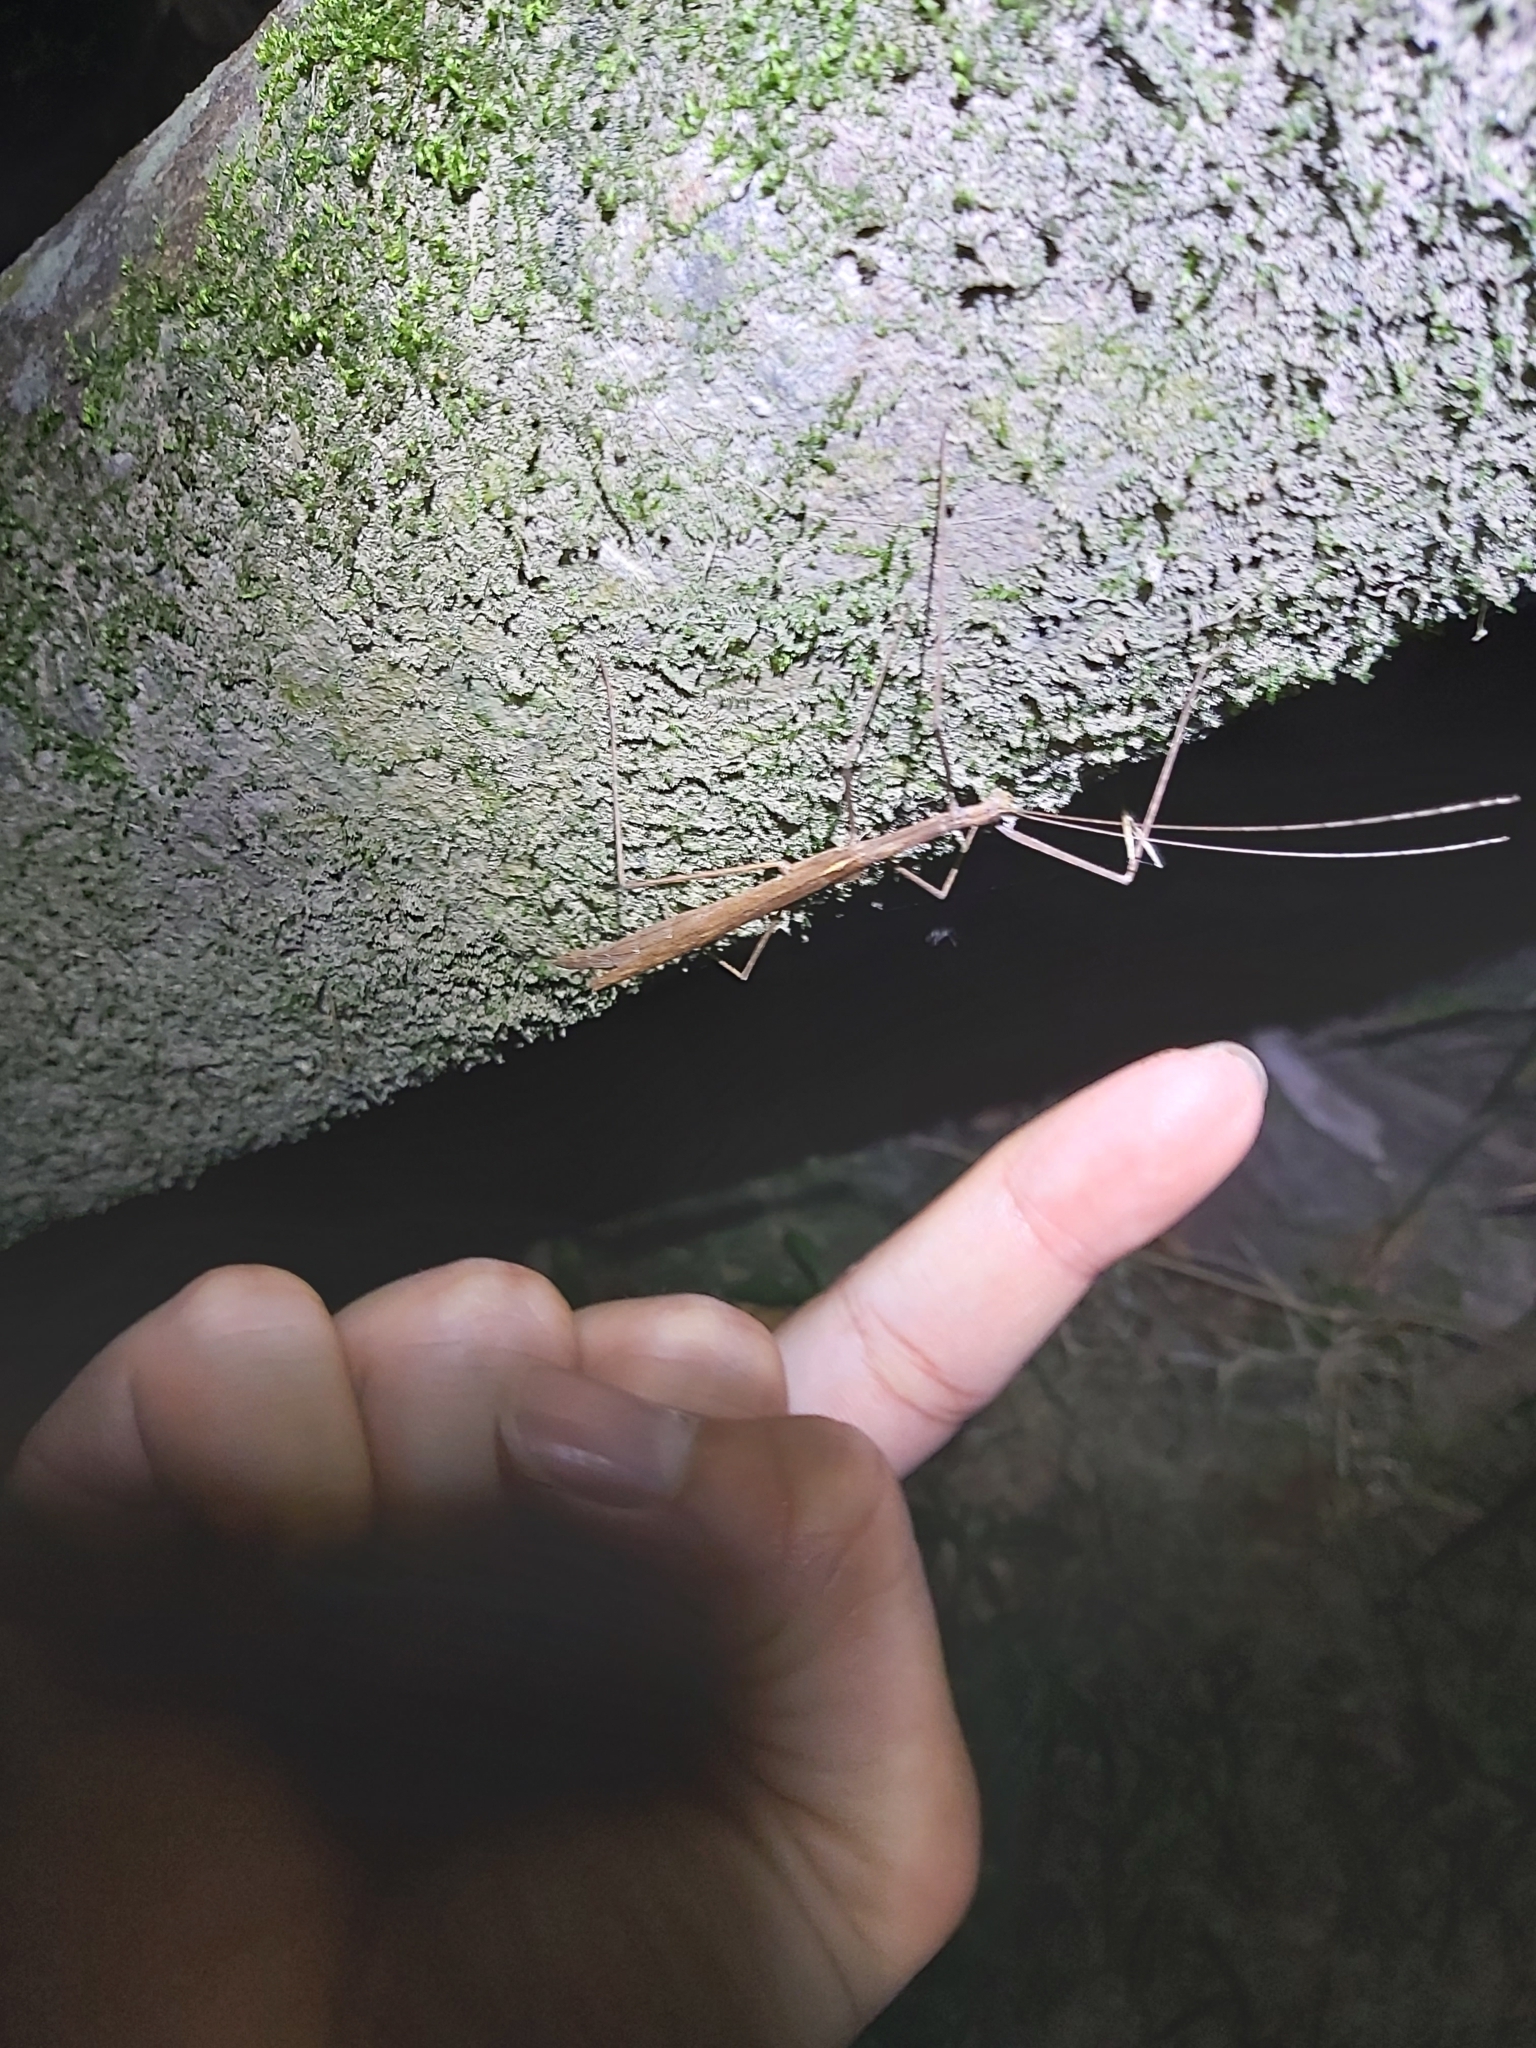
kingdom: Animalia
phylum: Arthropoda
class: Insecta
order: Phasmida
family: Lonchodidae
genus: Sipyloidea
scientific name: Sipyloidea larryi
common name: Hurricane larry stick-insect
